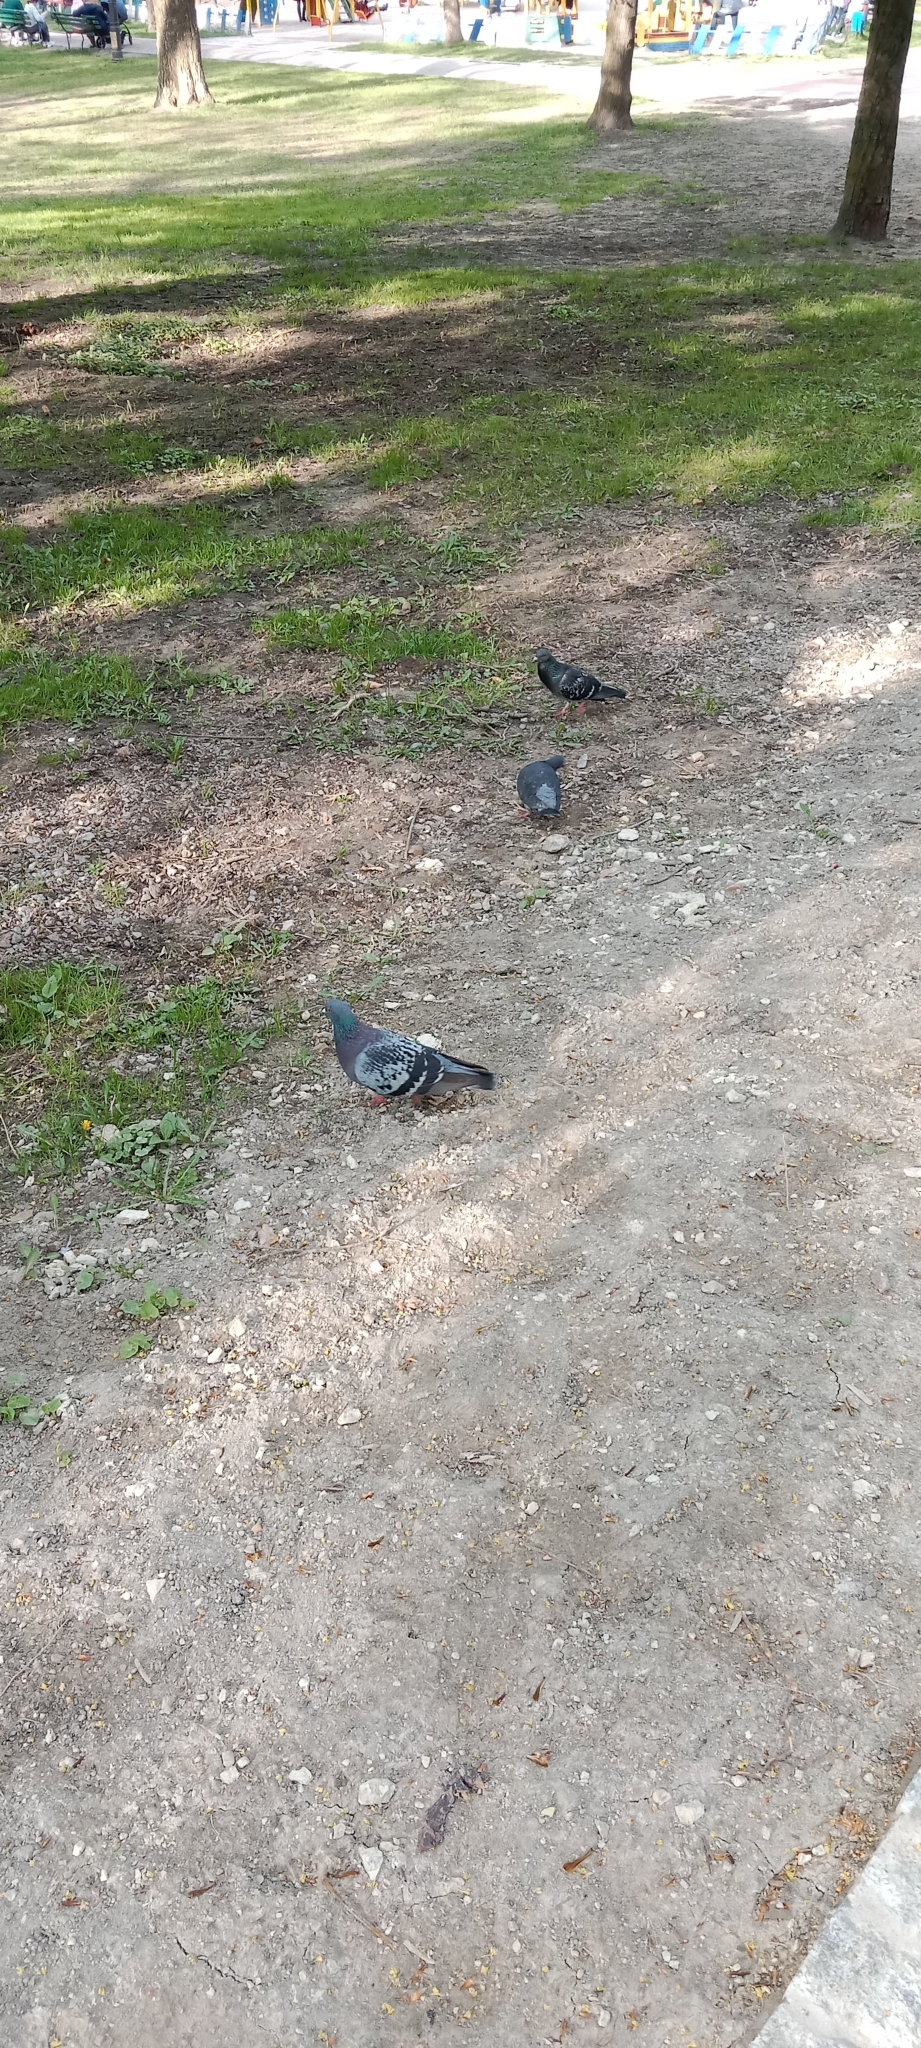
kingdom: Animalia
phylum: Chordata
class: Aves
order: Columbiformes
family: Columbidae
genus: Columba
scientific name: Columba livia
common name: Rock pigeon
